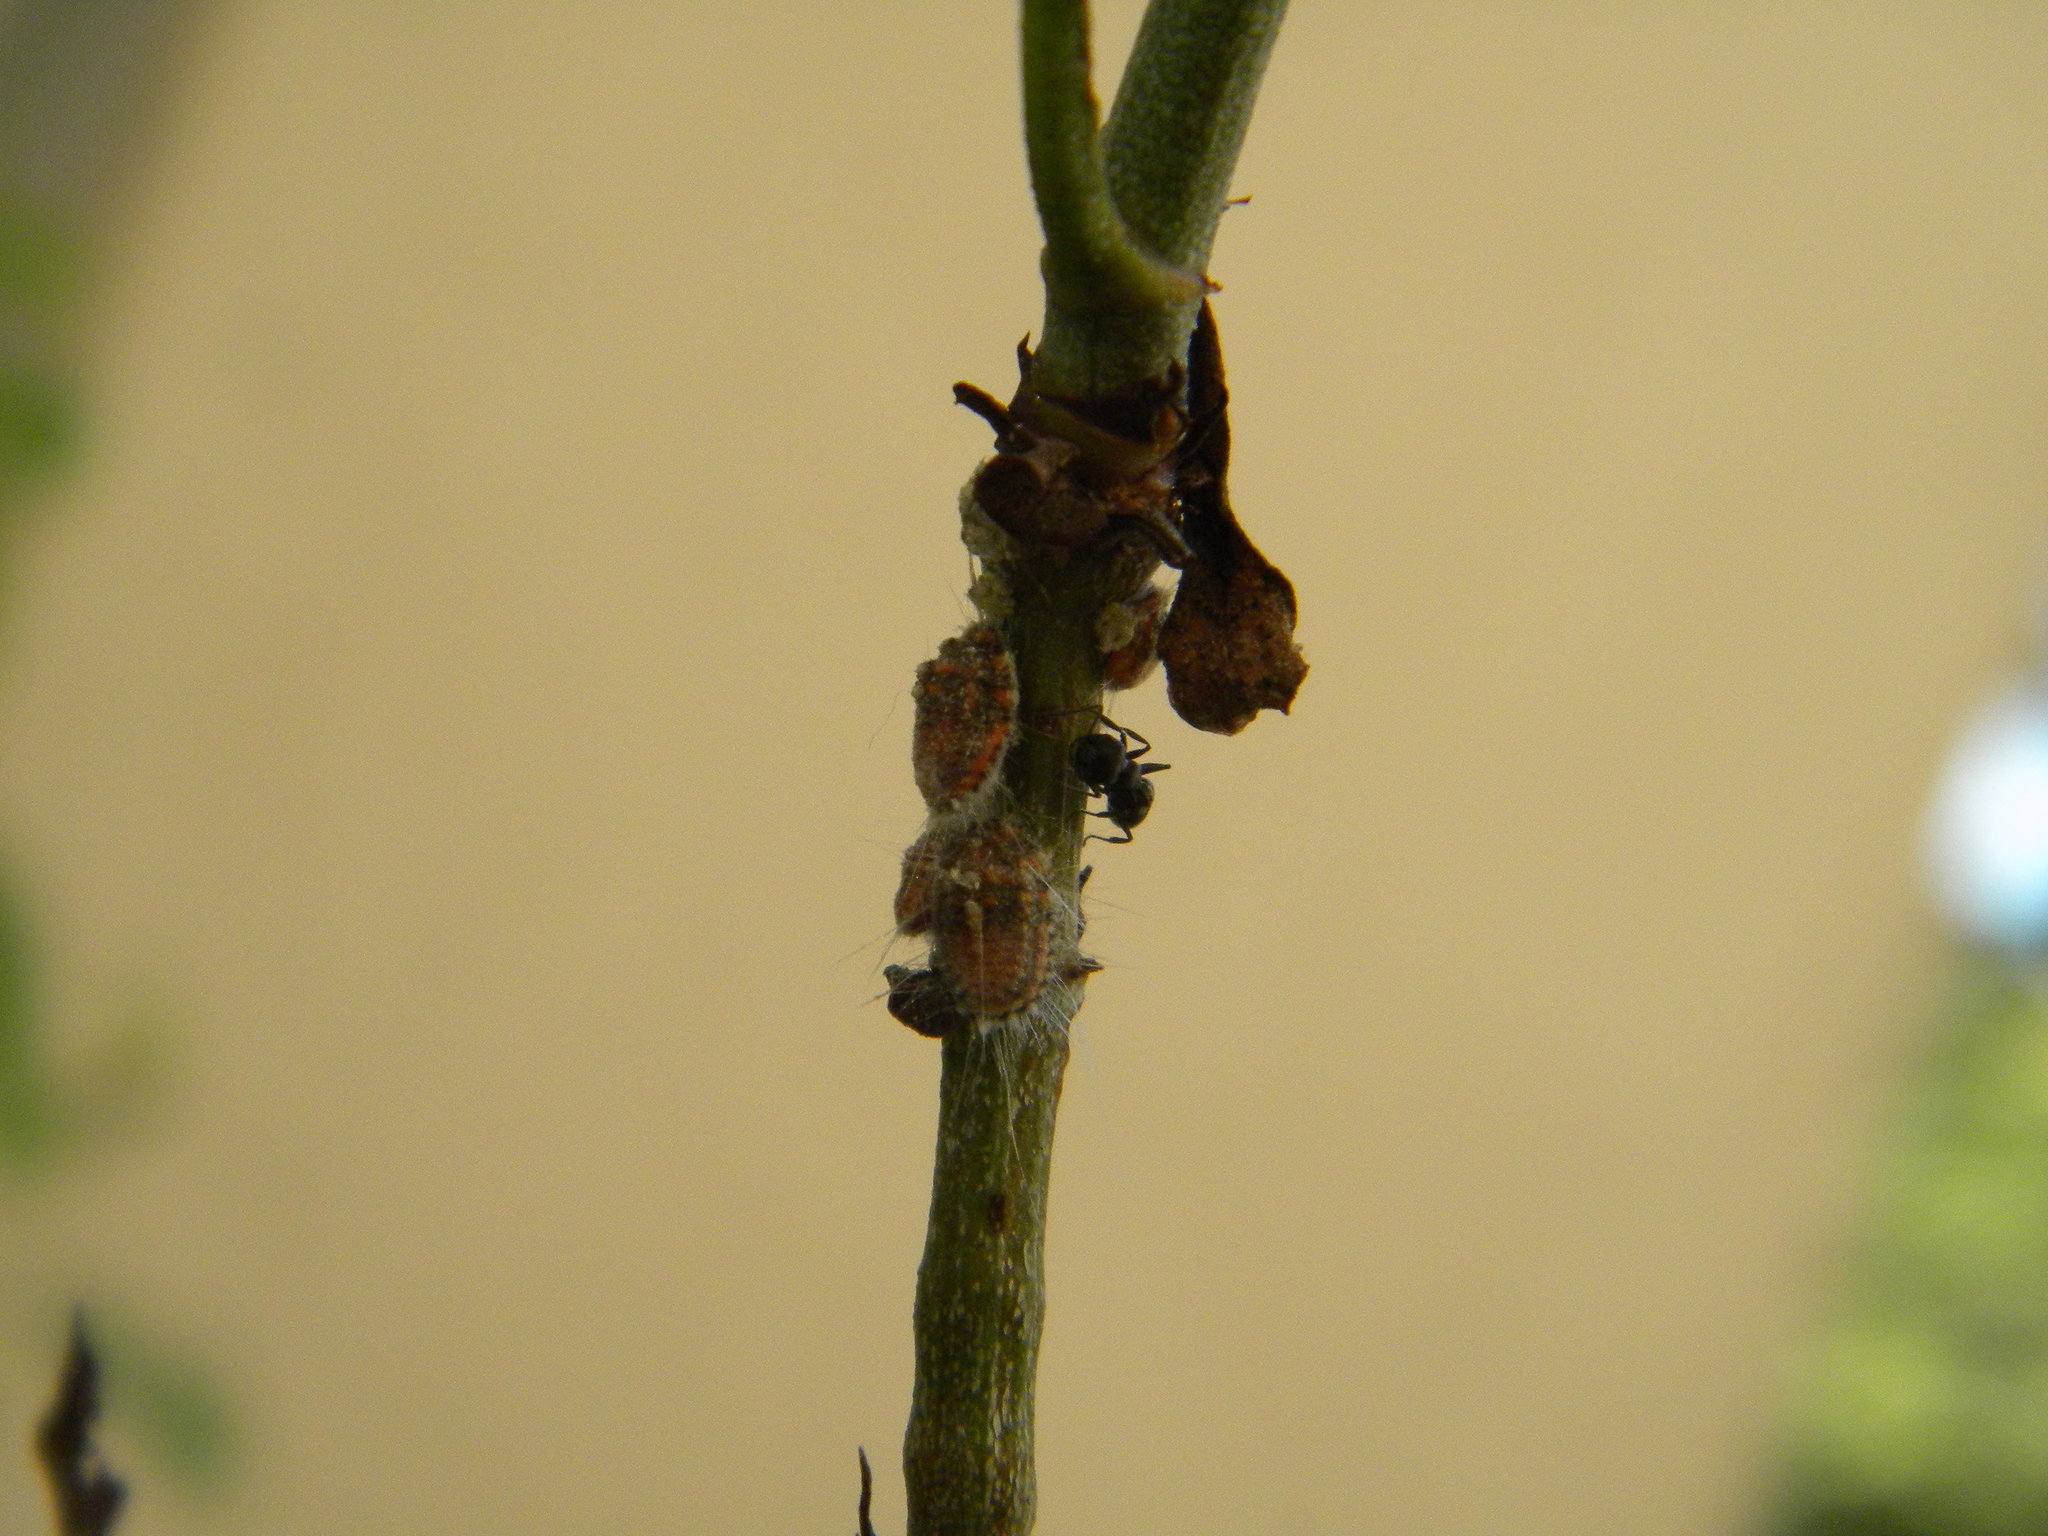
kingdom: Animalia
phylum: Arthropoda
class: Insecta
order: Hemiptera
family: Margarodidae
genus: Icerya
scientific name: Icerya purchasi
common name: Cottony cushion scale
